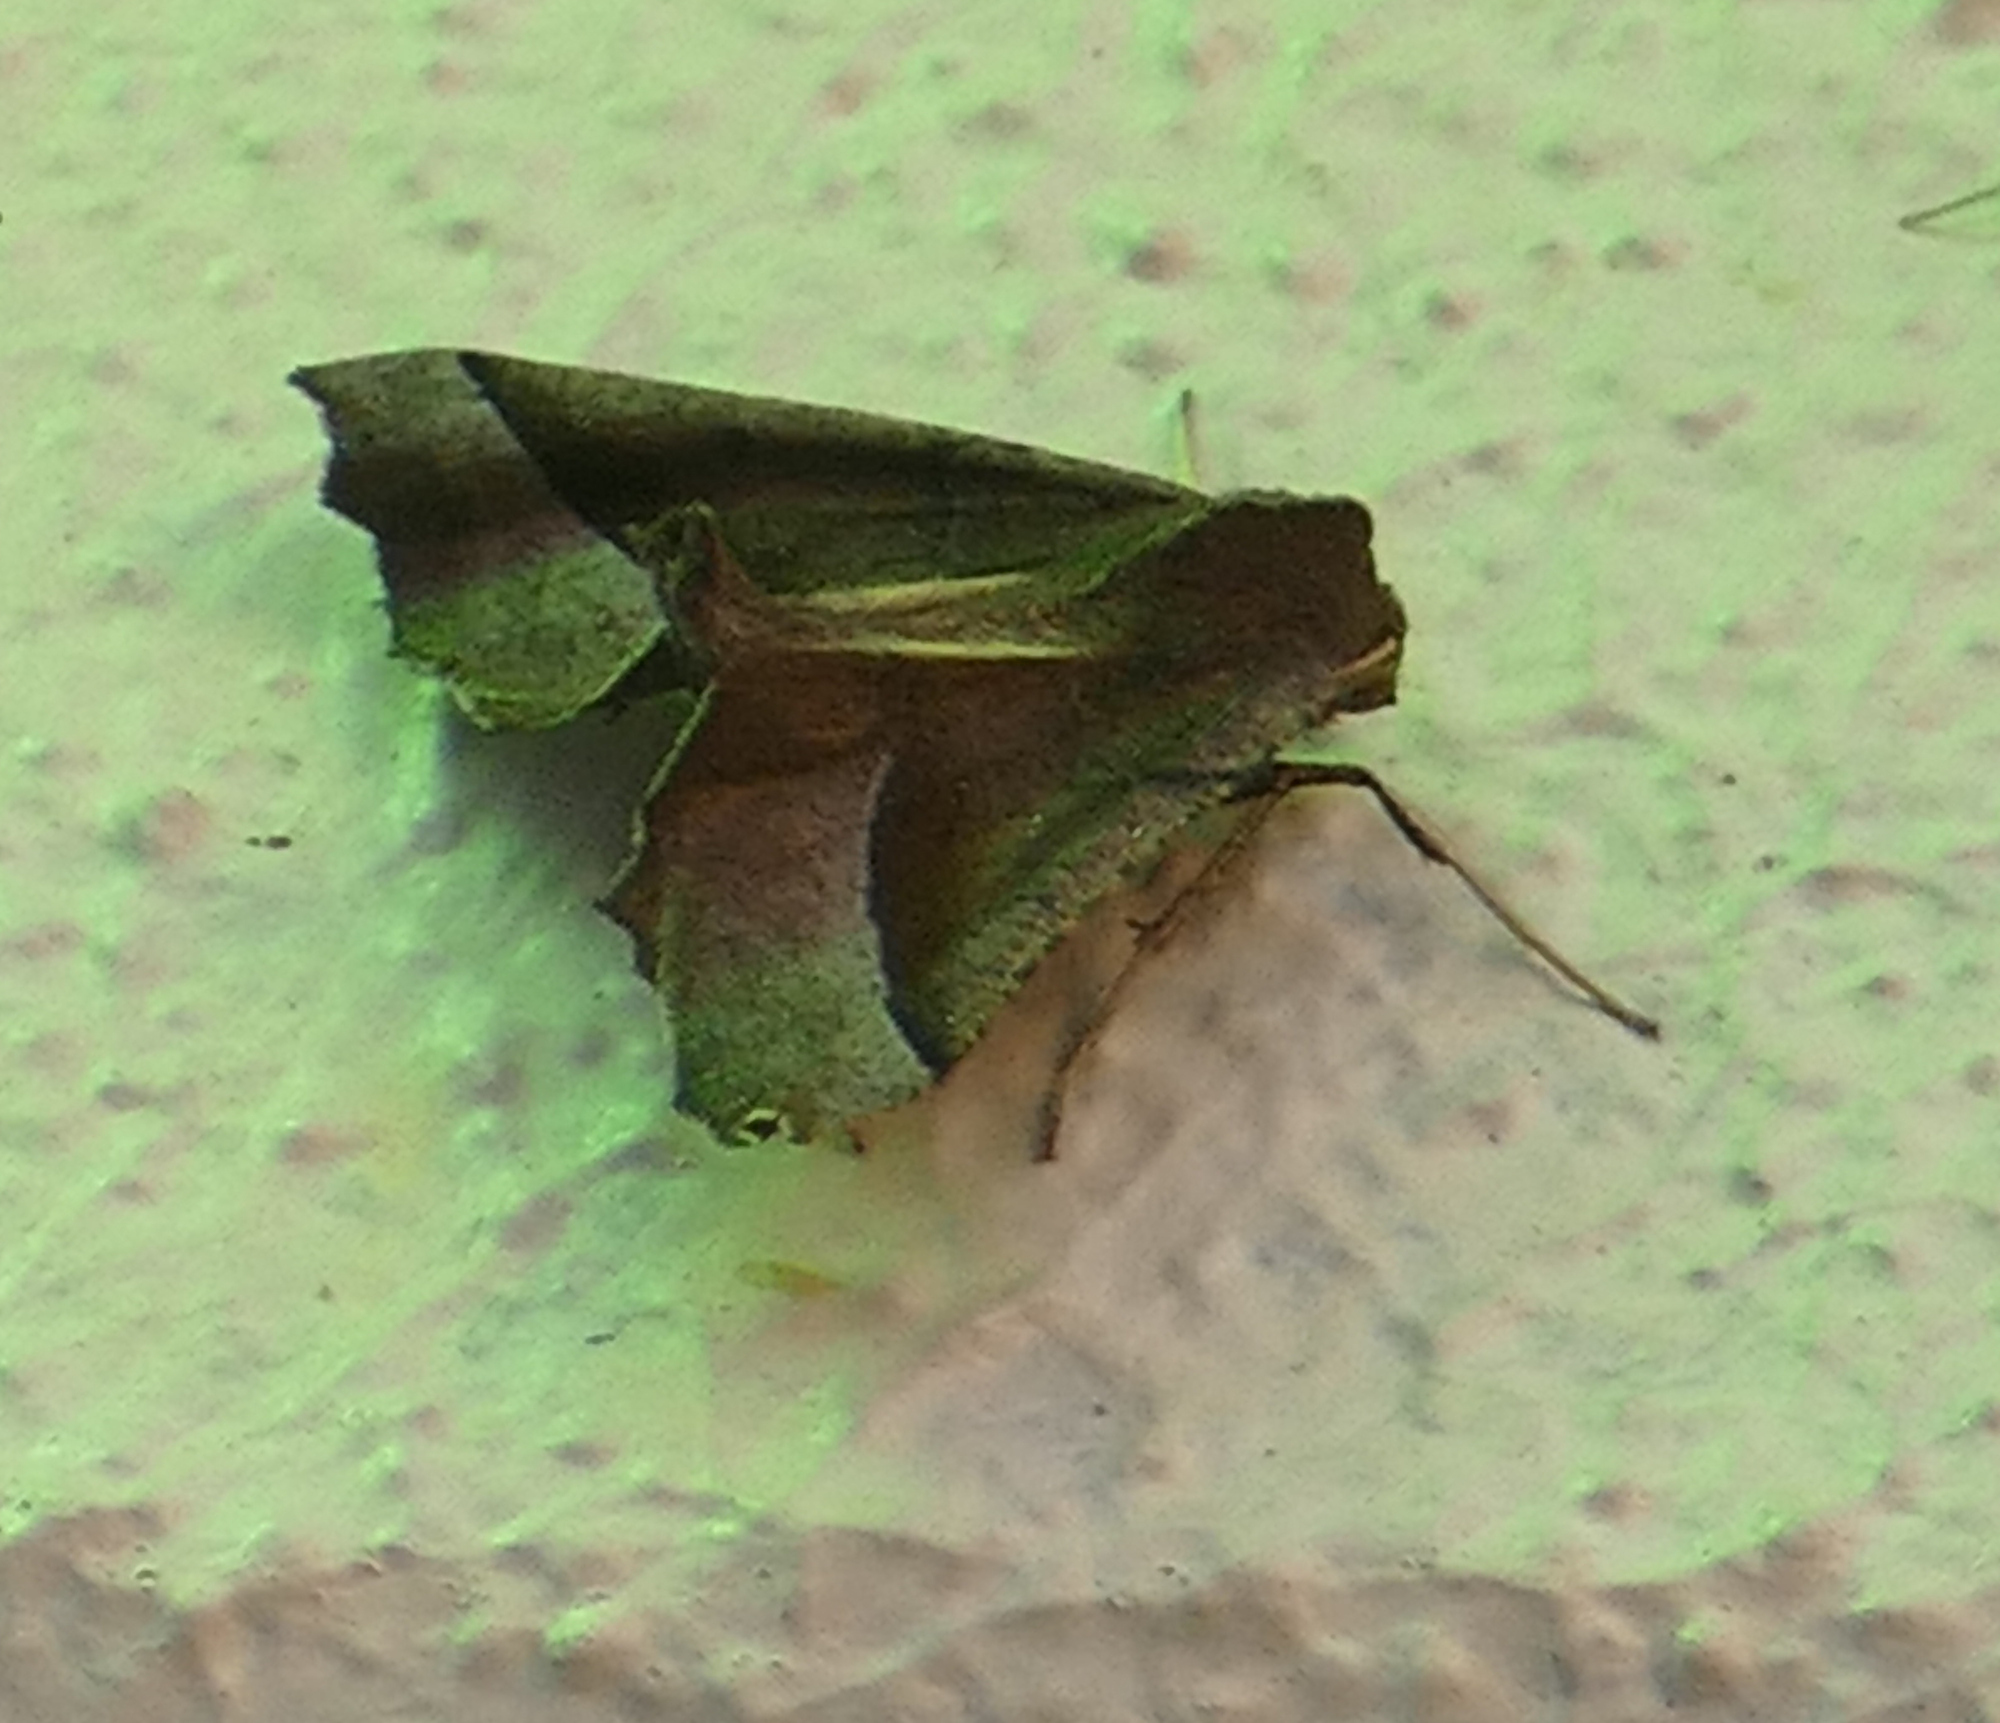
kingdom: Animalia
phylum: Arthropoda
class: Insecta
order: Lepidoptera
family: Geometridae
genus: Pero
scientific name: Pero zalissaria
